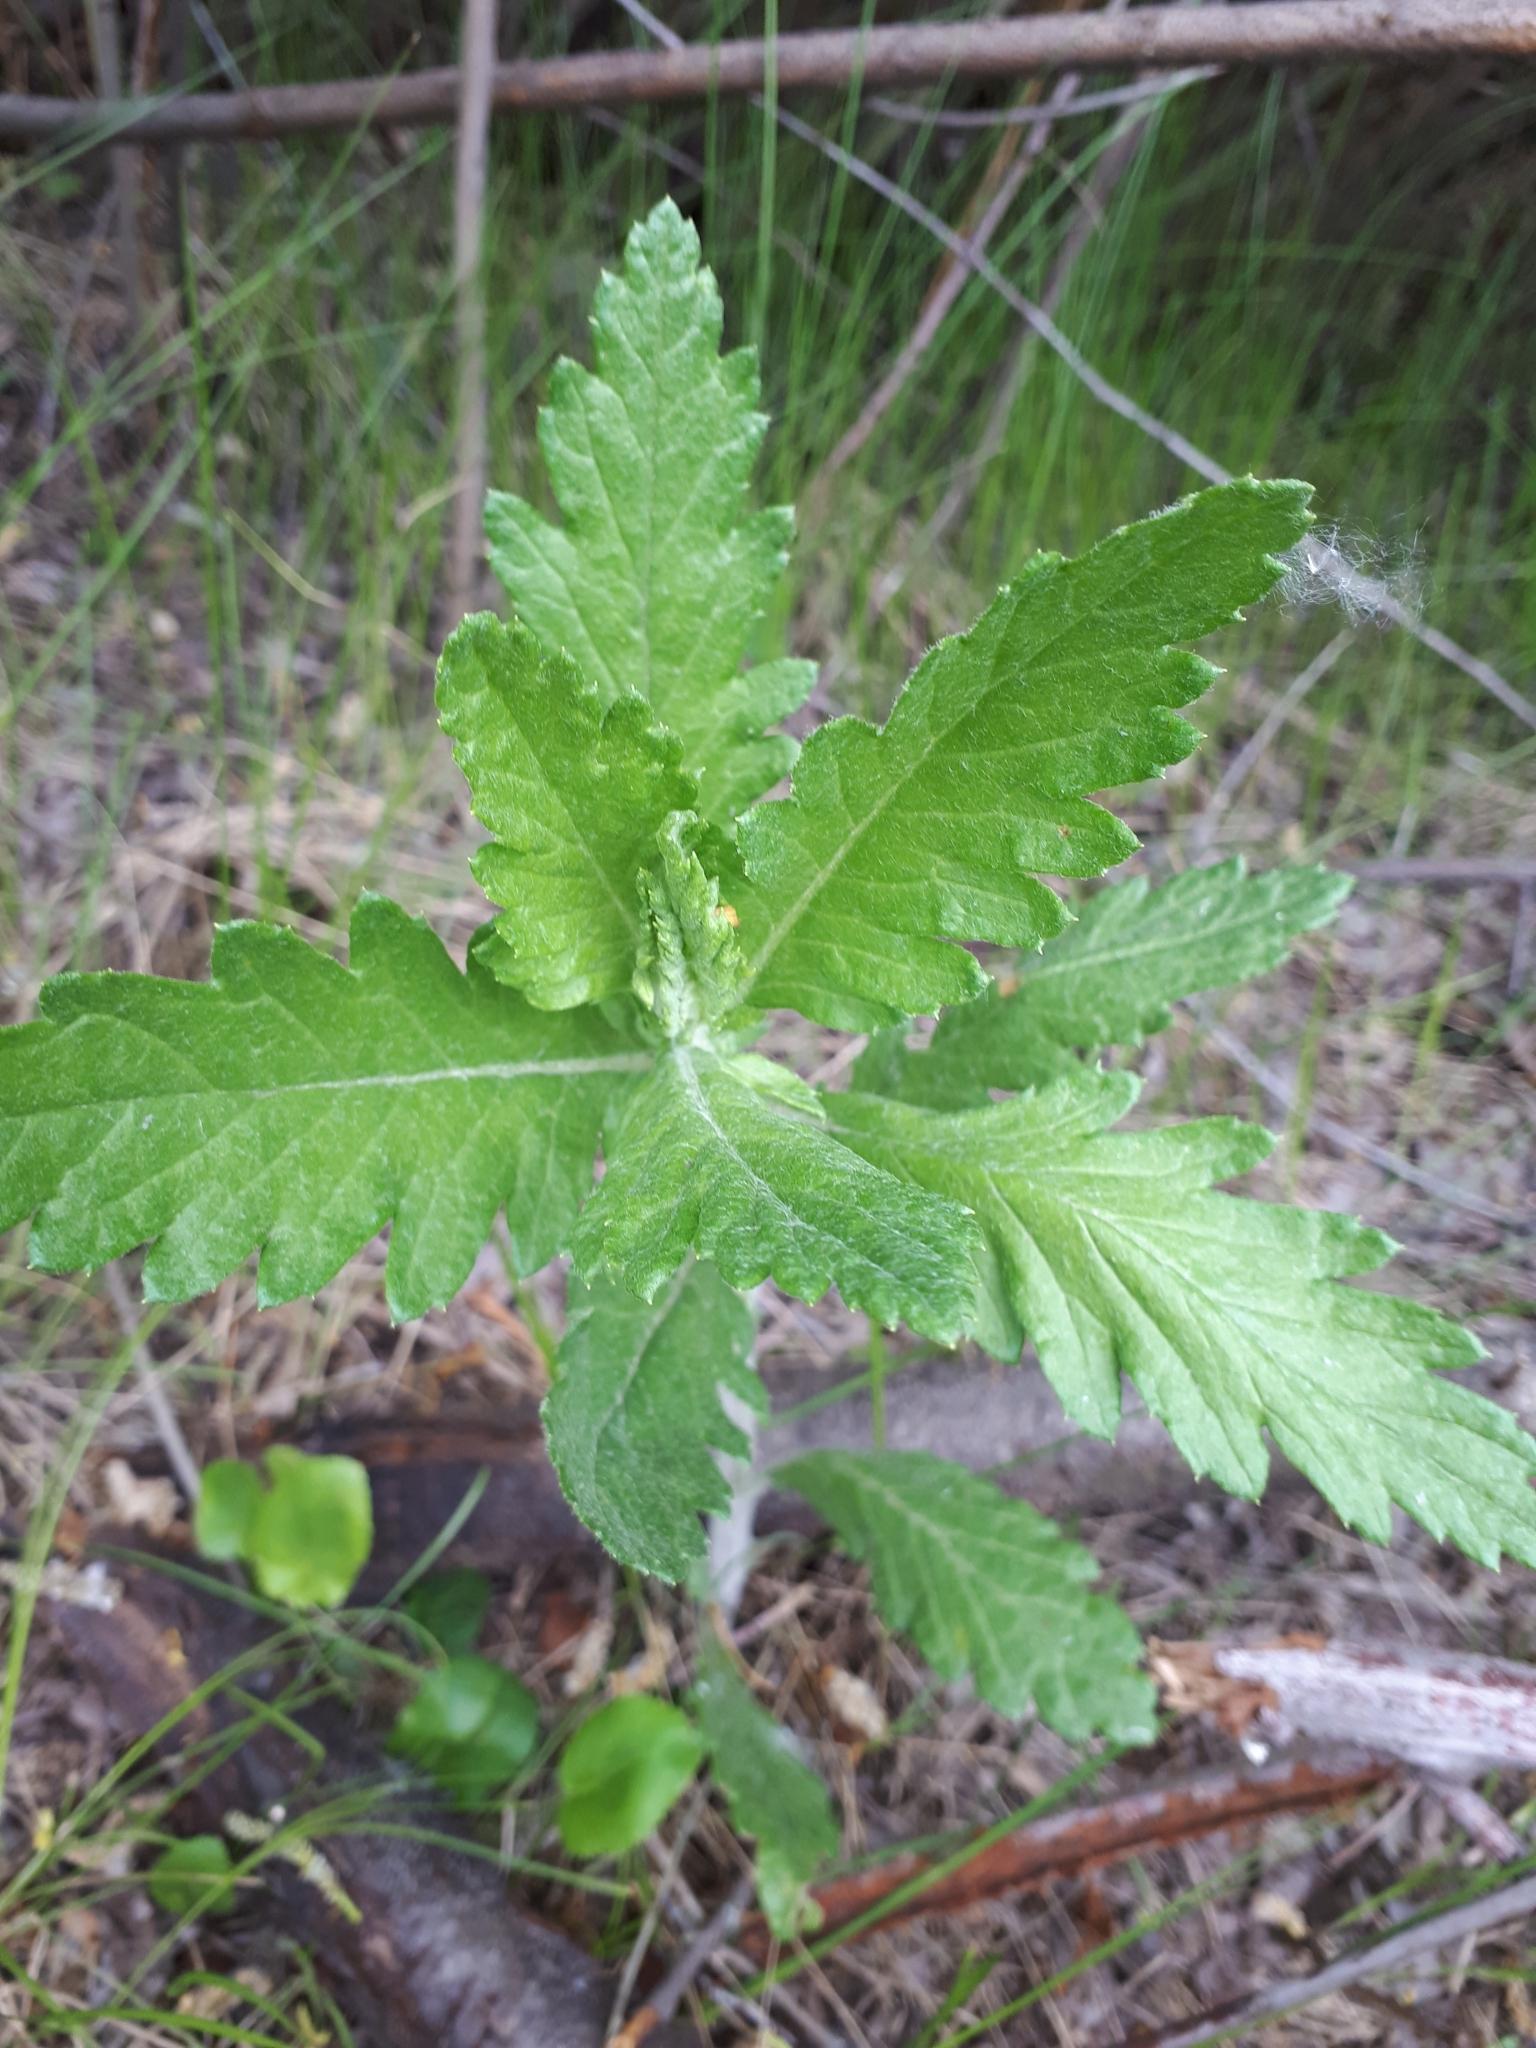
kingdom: Plantae
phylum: Tracheophyta
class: Magnoliopsida
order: Asterales
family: Asteraceae
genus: Jacobaea
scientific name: Jacobaea erucifolia
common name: Hoary ragwort
